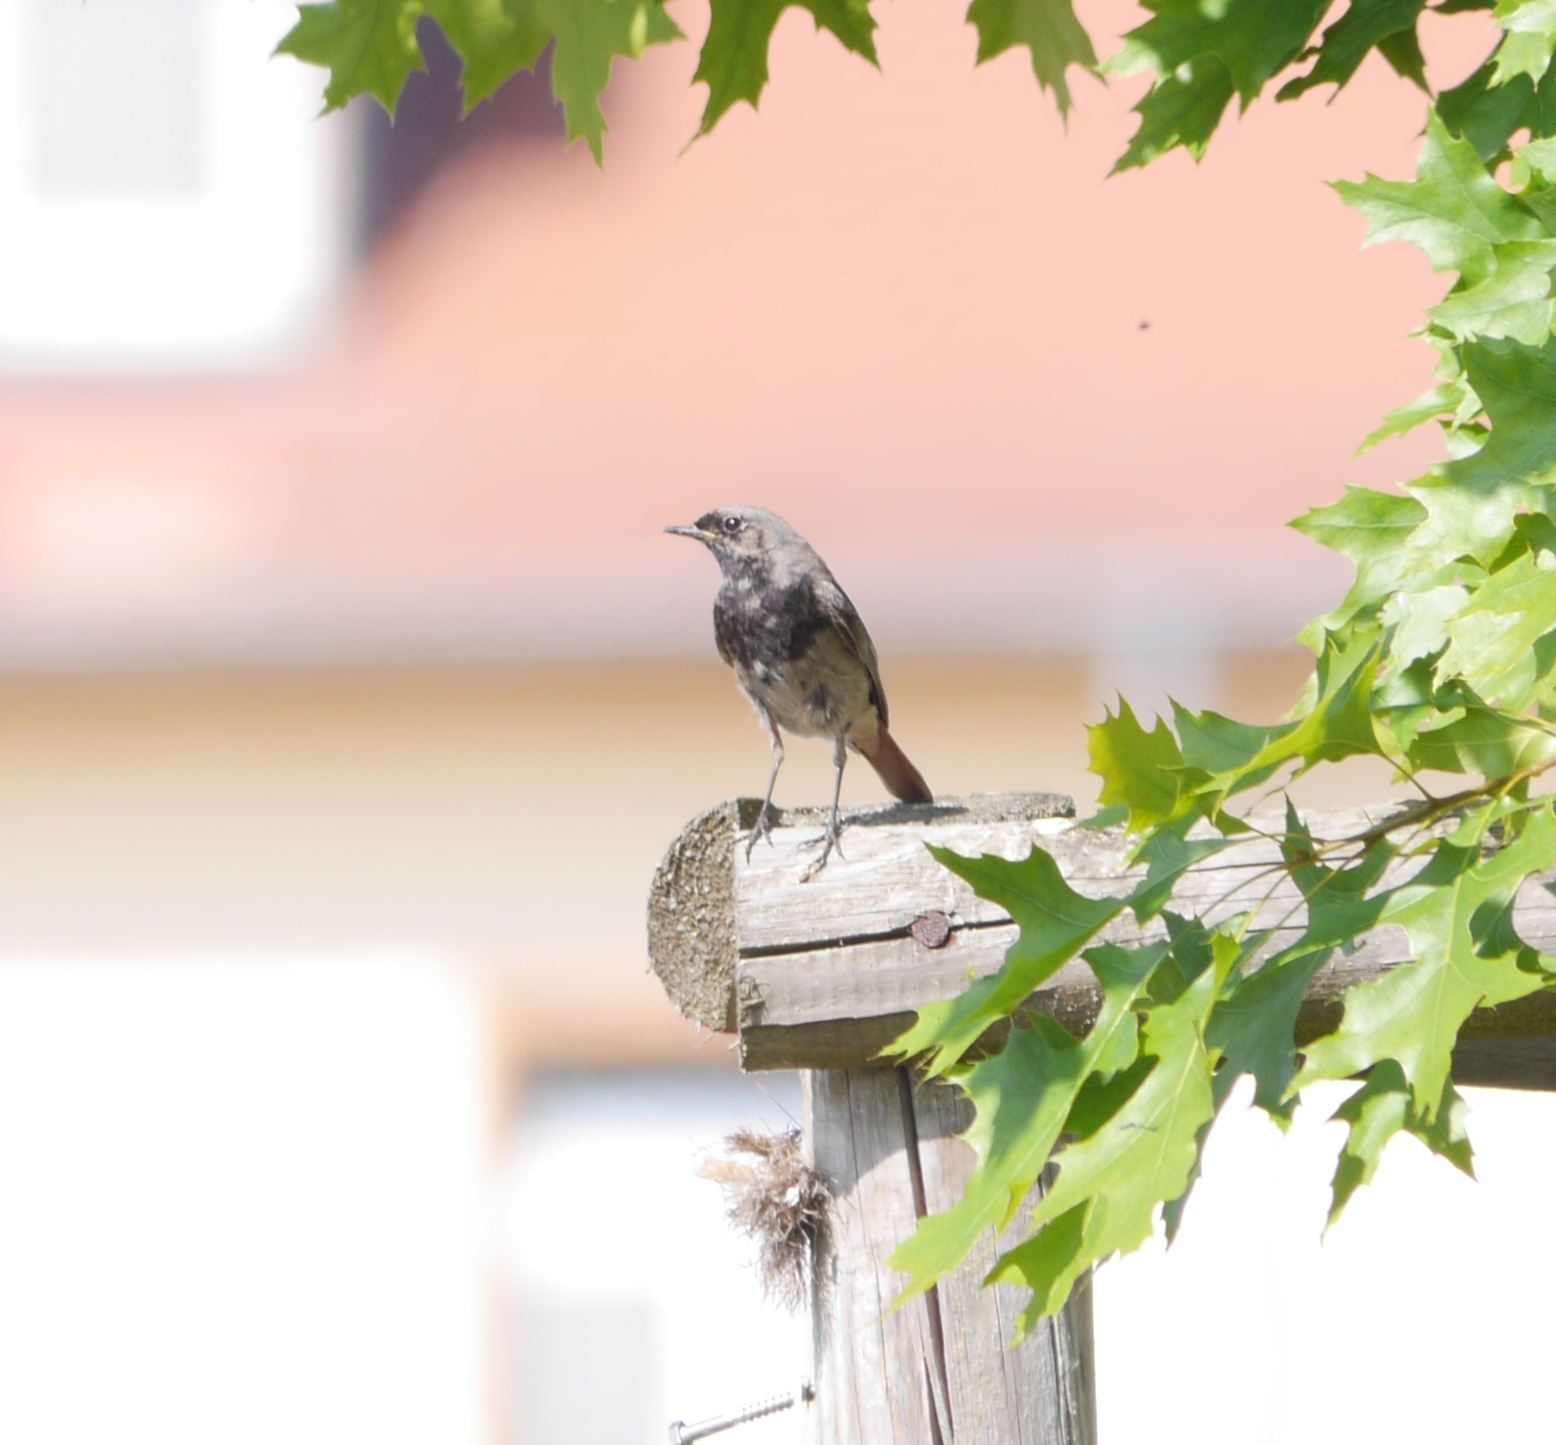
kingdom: Animalia
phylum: Chordata
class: Aves
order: Passeriformes
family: Muscicapidae
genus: Phoenicurus
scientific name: Phoenicurus ochruros
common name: Black redstart
